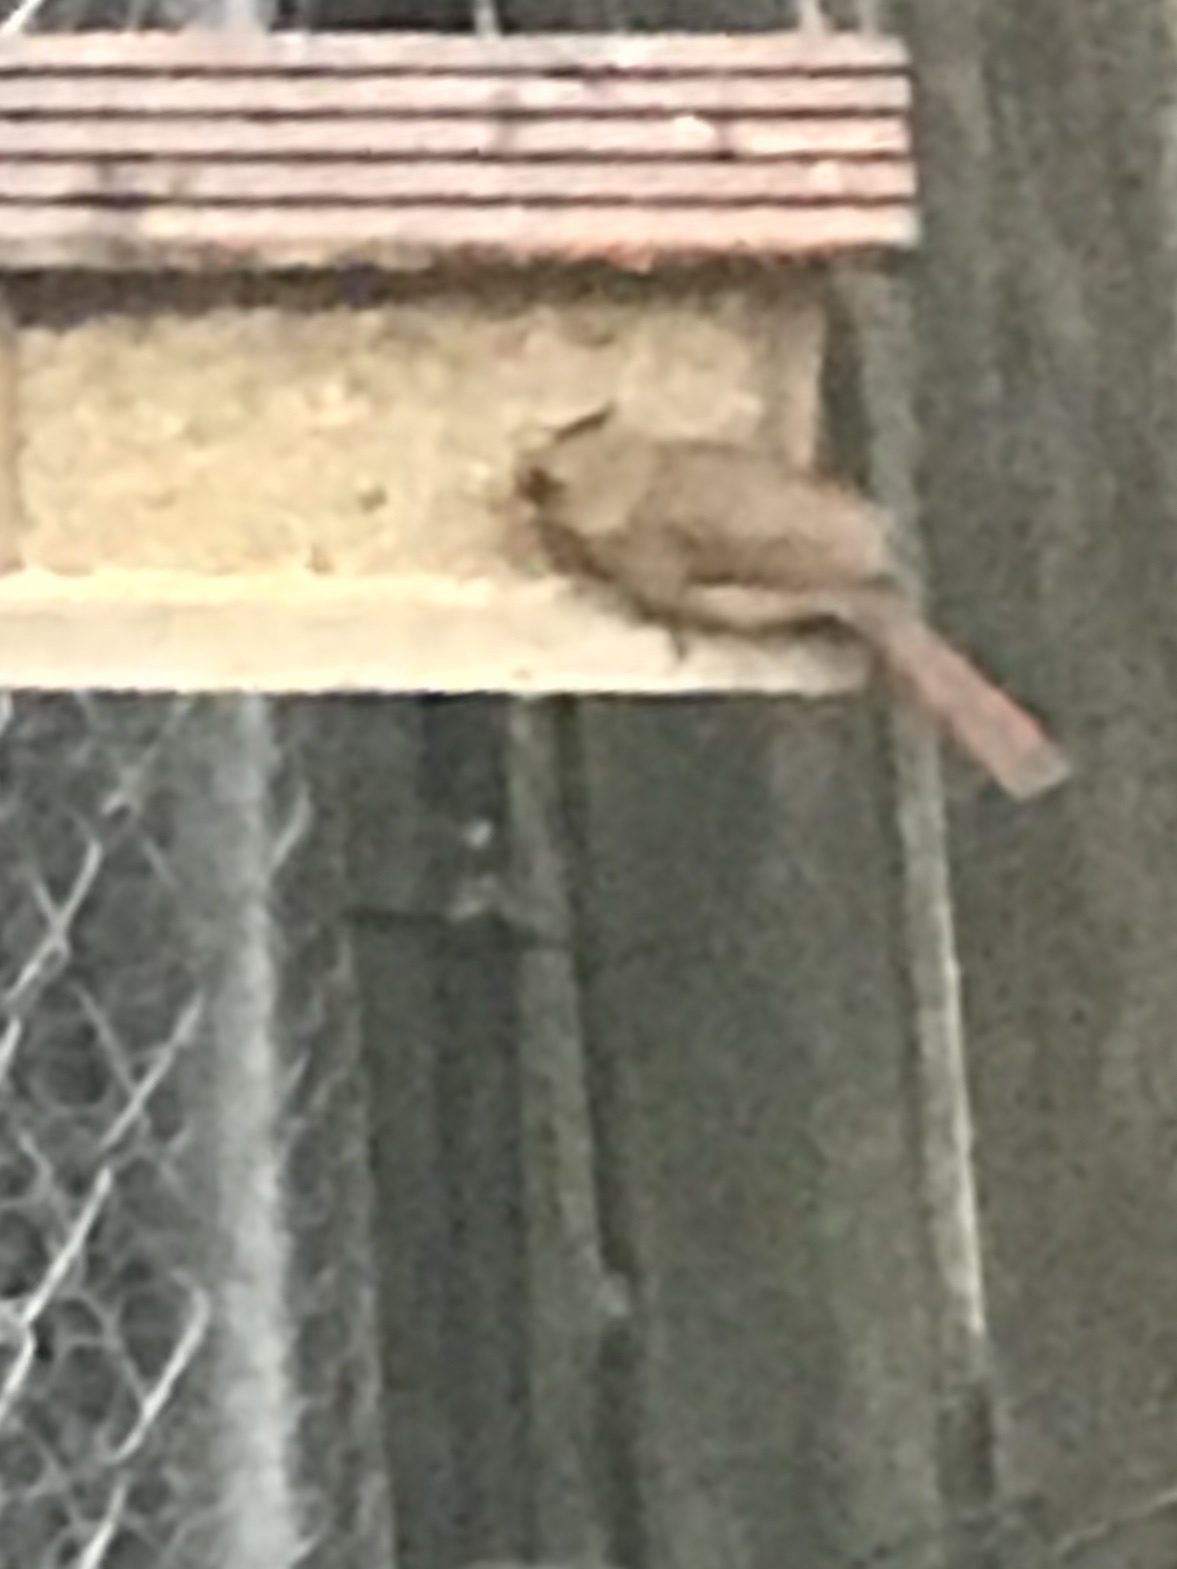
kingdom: Animalia
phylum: Chordata
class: Aves
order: Passeriformes
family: Cardinalidae
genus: Cardinalis
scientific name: Cardinalis cardinalis
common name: Northern cardinal
